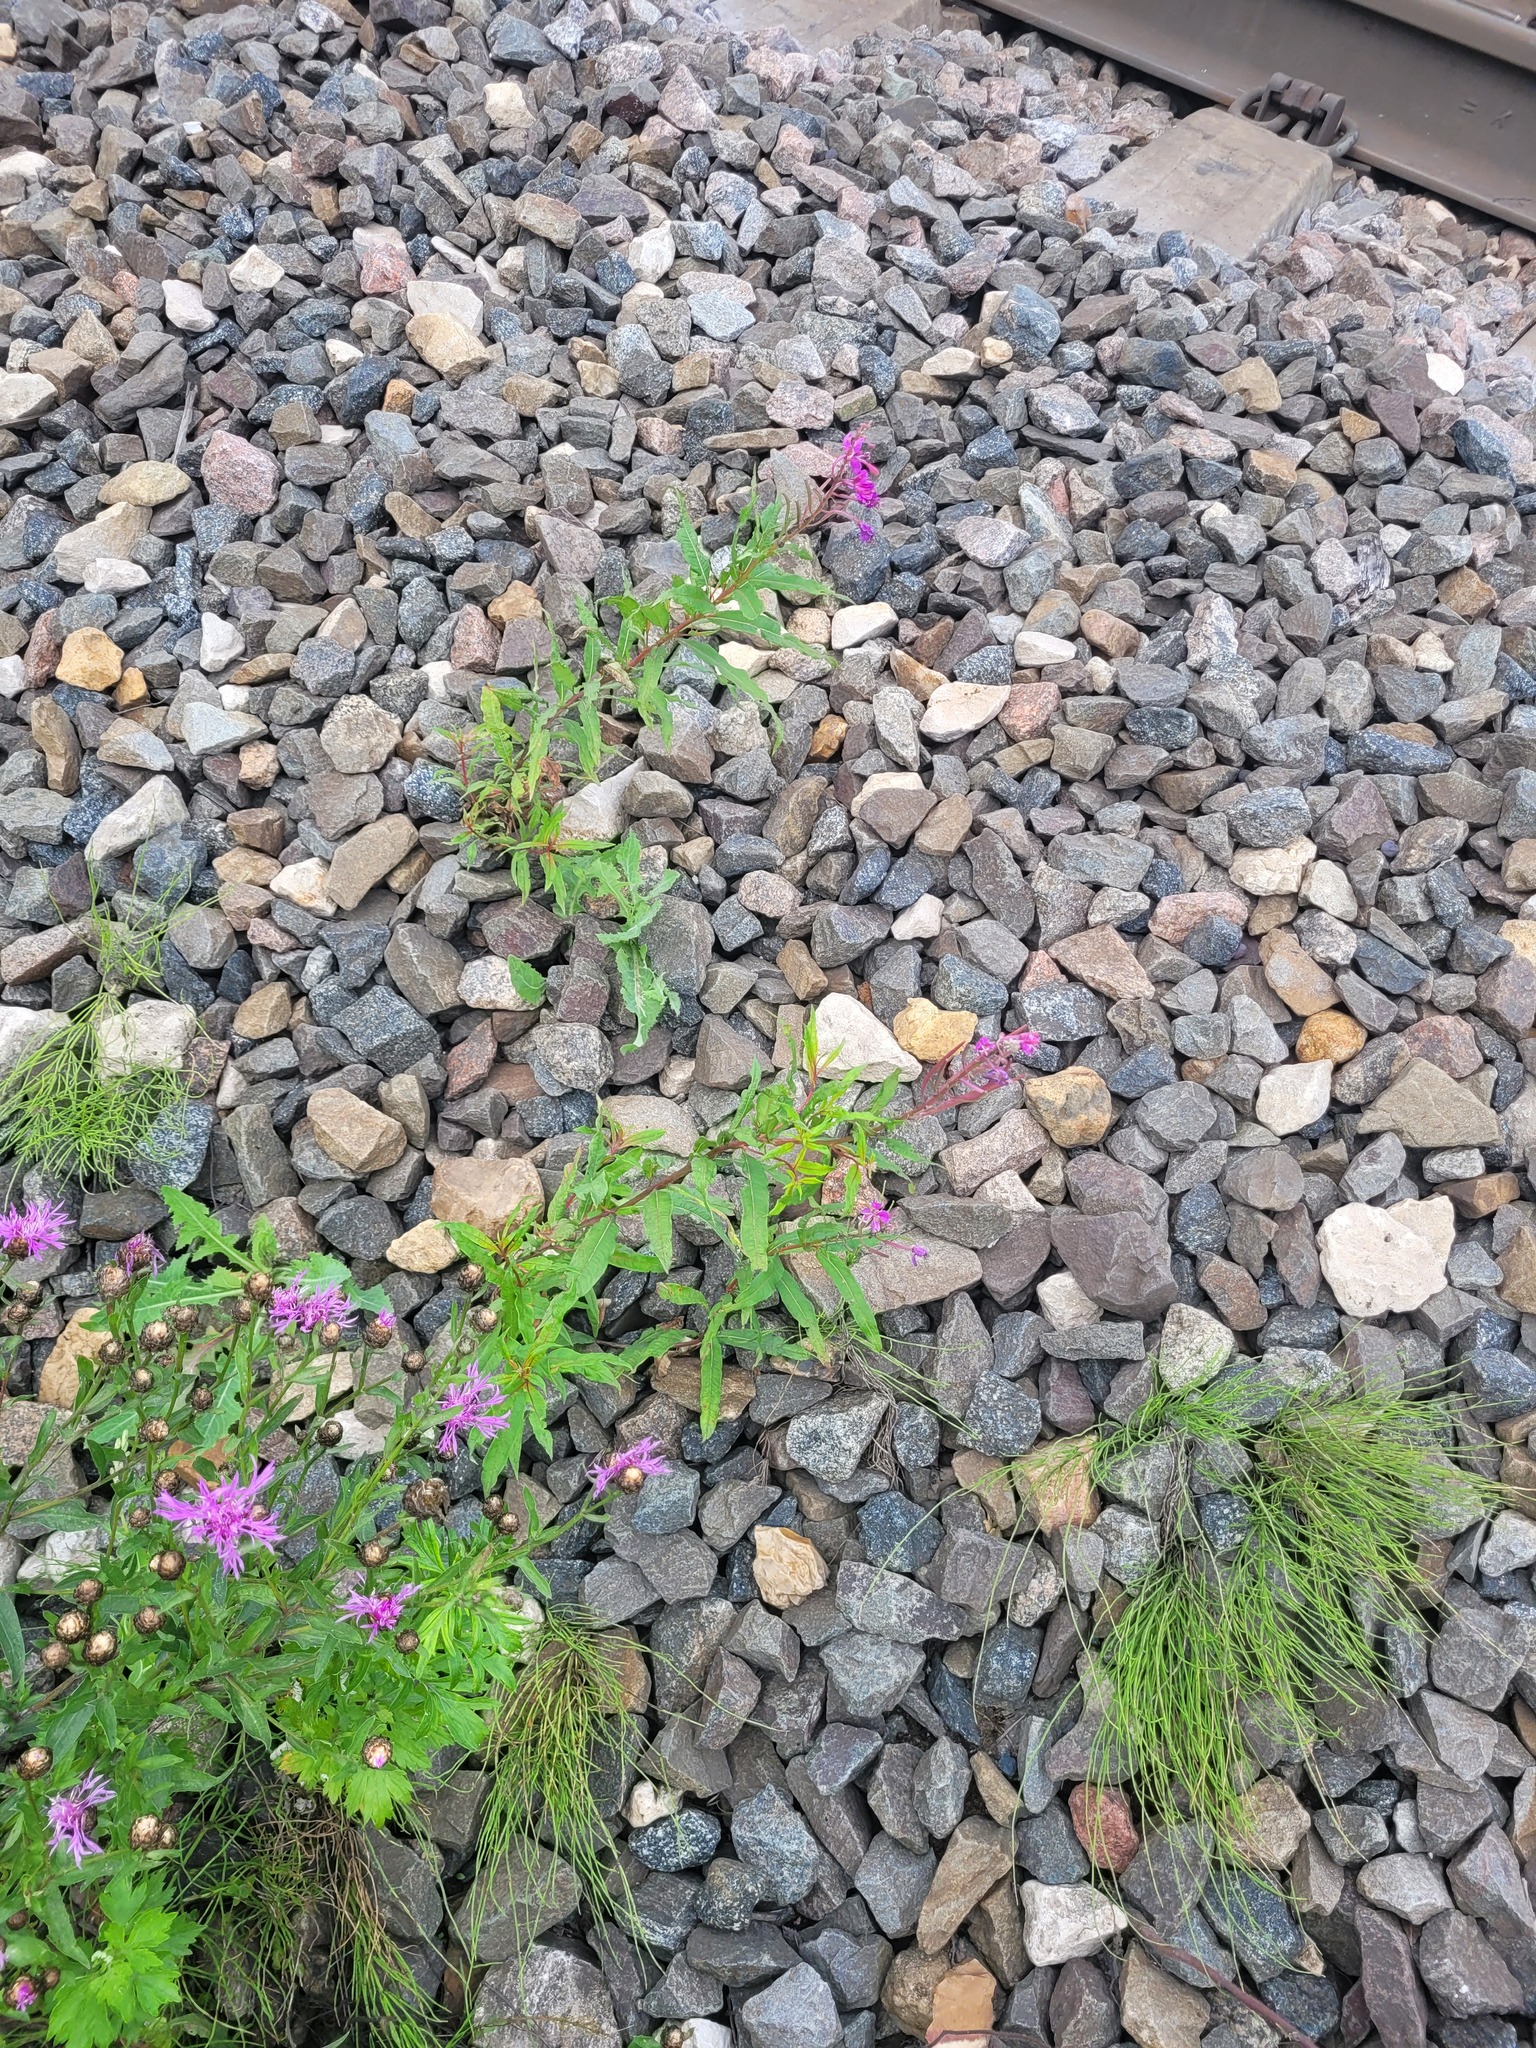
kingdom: Plantae
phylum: Tracheophyta
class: Magnoliopsida
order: Myrtales
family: Onagraceae
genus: Chamaenerion
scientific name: Chamaenerion angustifolium
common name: Fireweed
